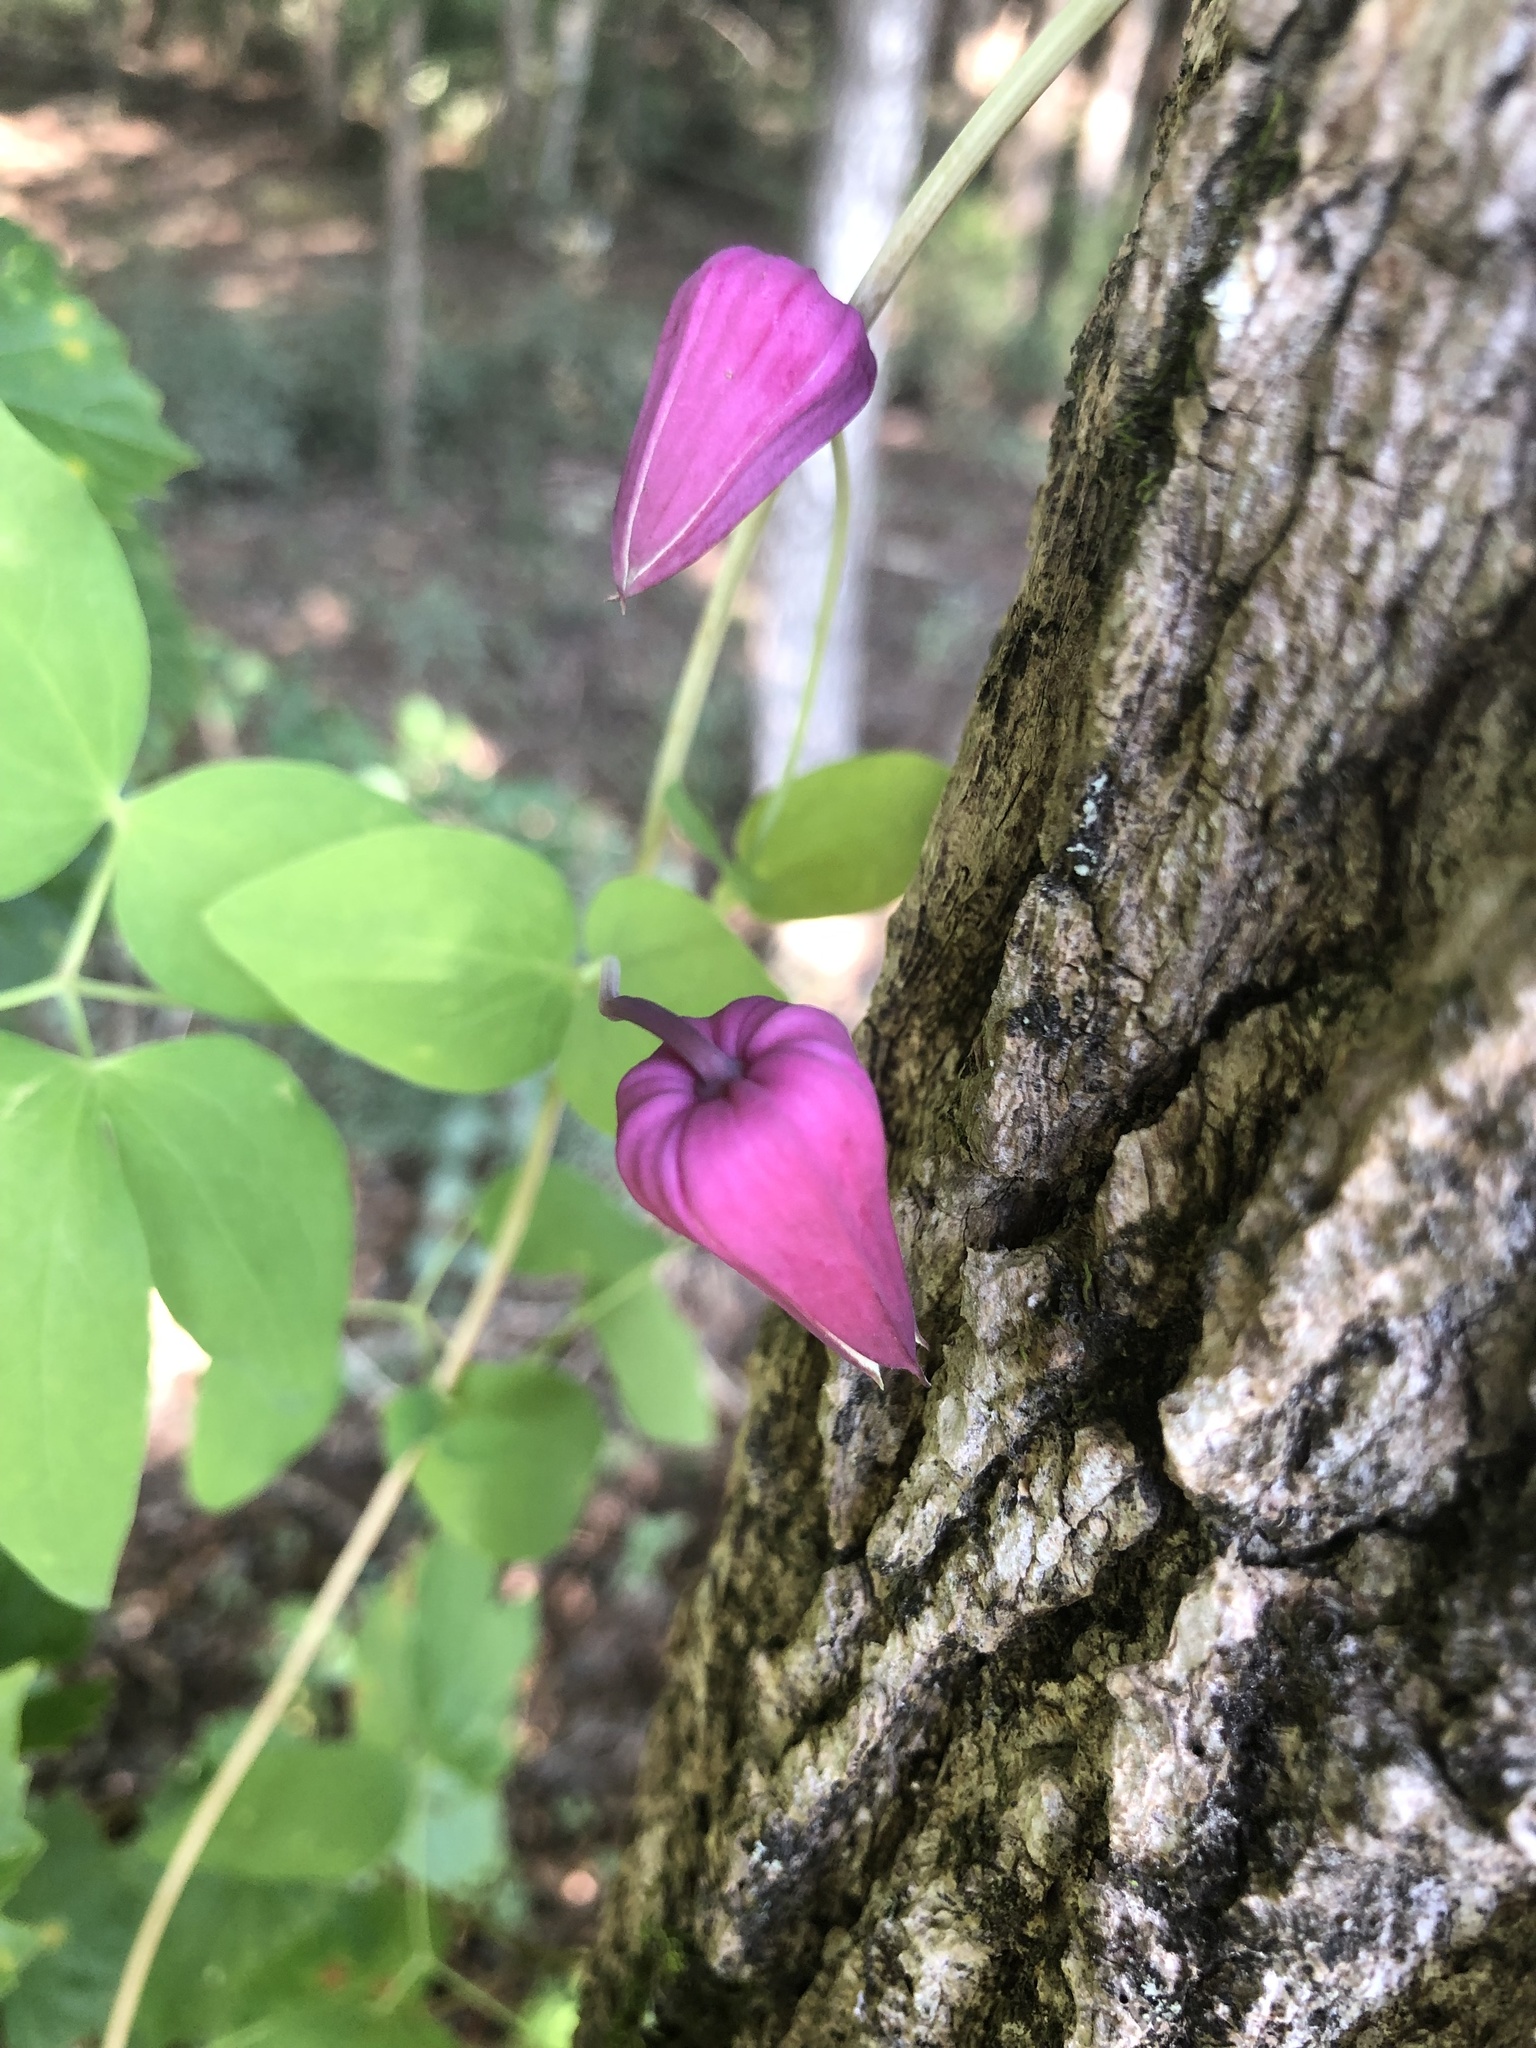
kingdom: Plantae
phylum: Tracheophyta
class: Magnoliopsida
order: Ranunculales
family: Ranunculaceae
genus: Clematis
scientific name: Clematis glaucophylla
